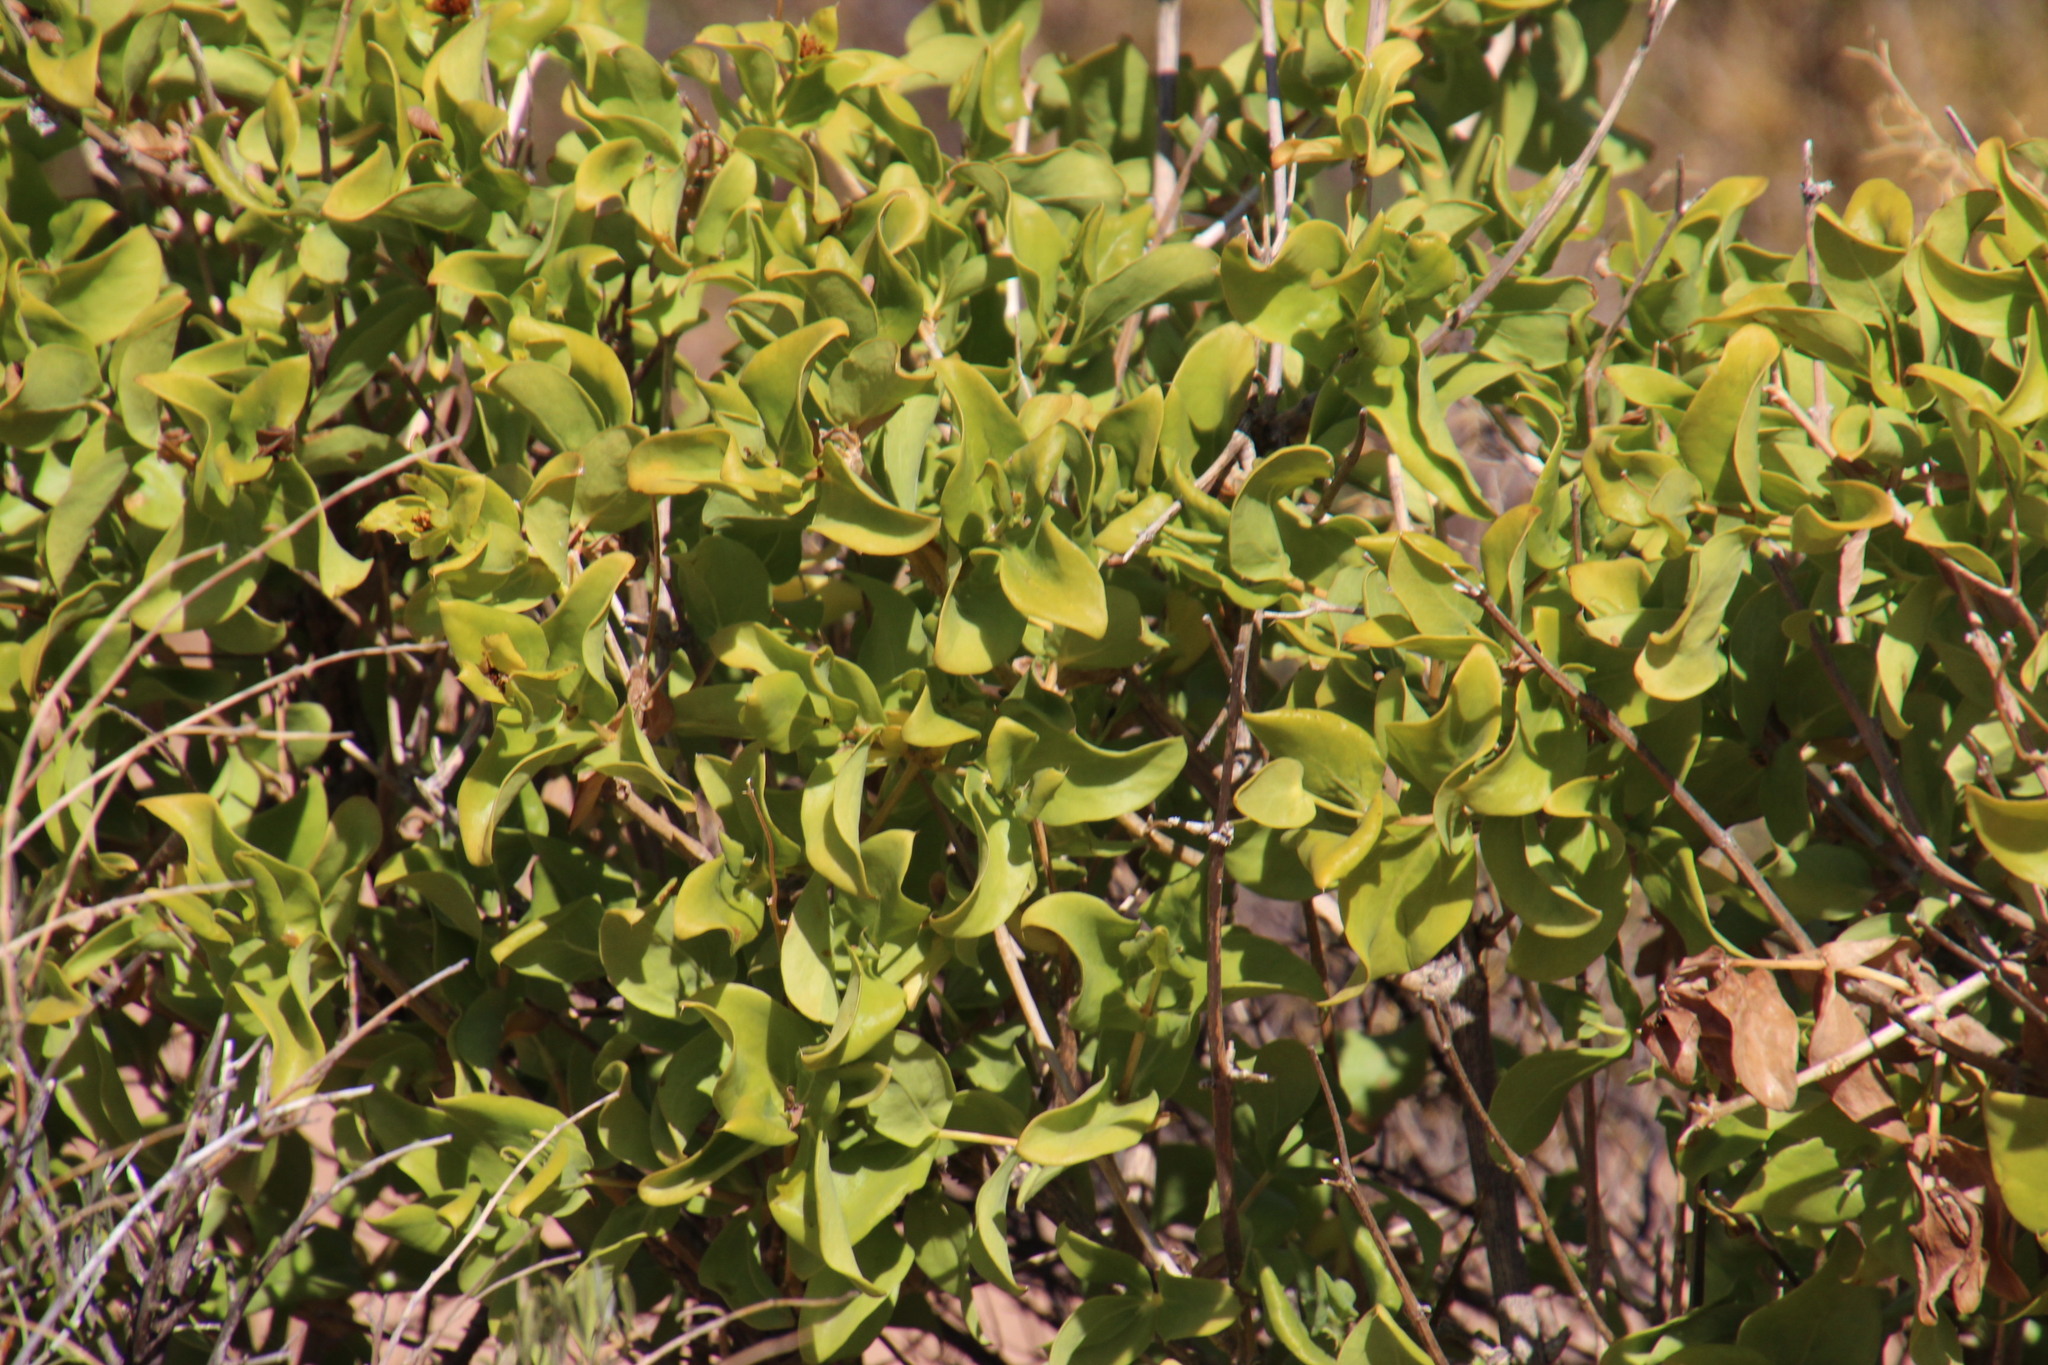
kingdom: Plantae
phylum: Tracheophyta
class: Magnoliopsida
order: Asterales
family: Asteraceae
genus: Didelta
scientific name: Didelta spinosa
